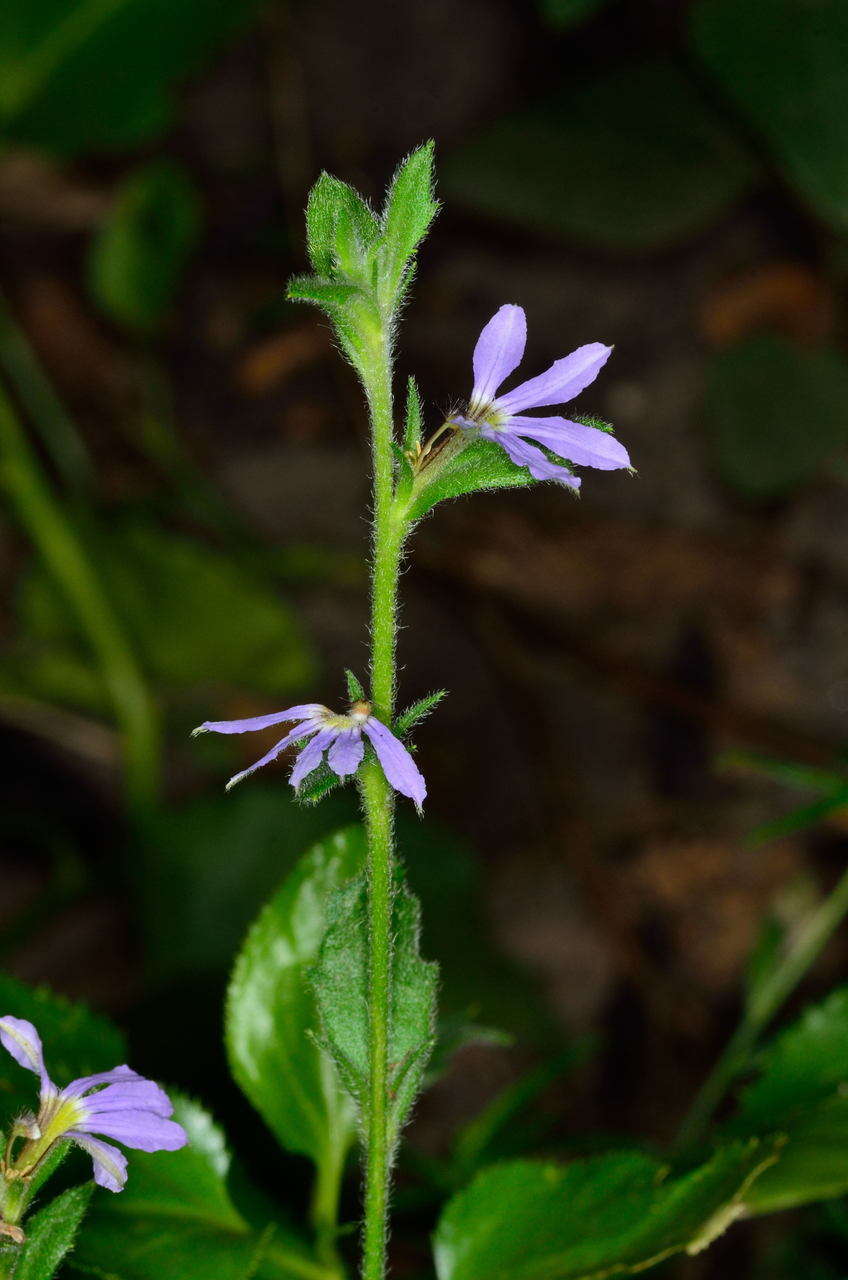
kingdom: Plantae
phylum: Tracheophyta
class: Magnoliopsida
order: Asterales
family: Goodeniaceae
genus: Scaevola
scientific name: Scaevola aemula
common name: Common fanflower
